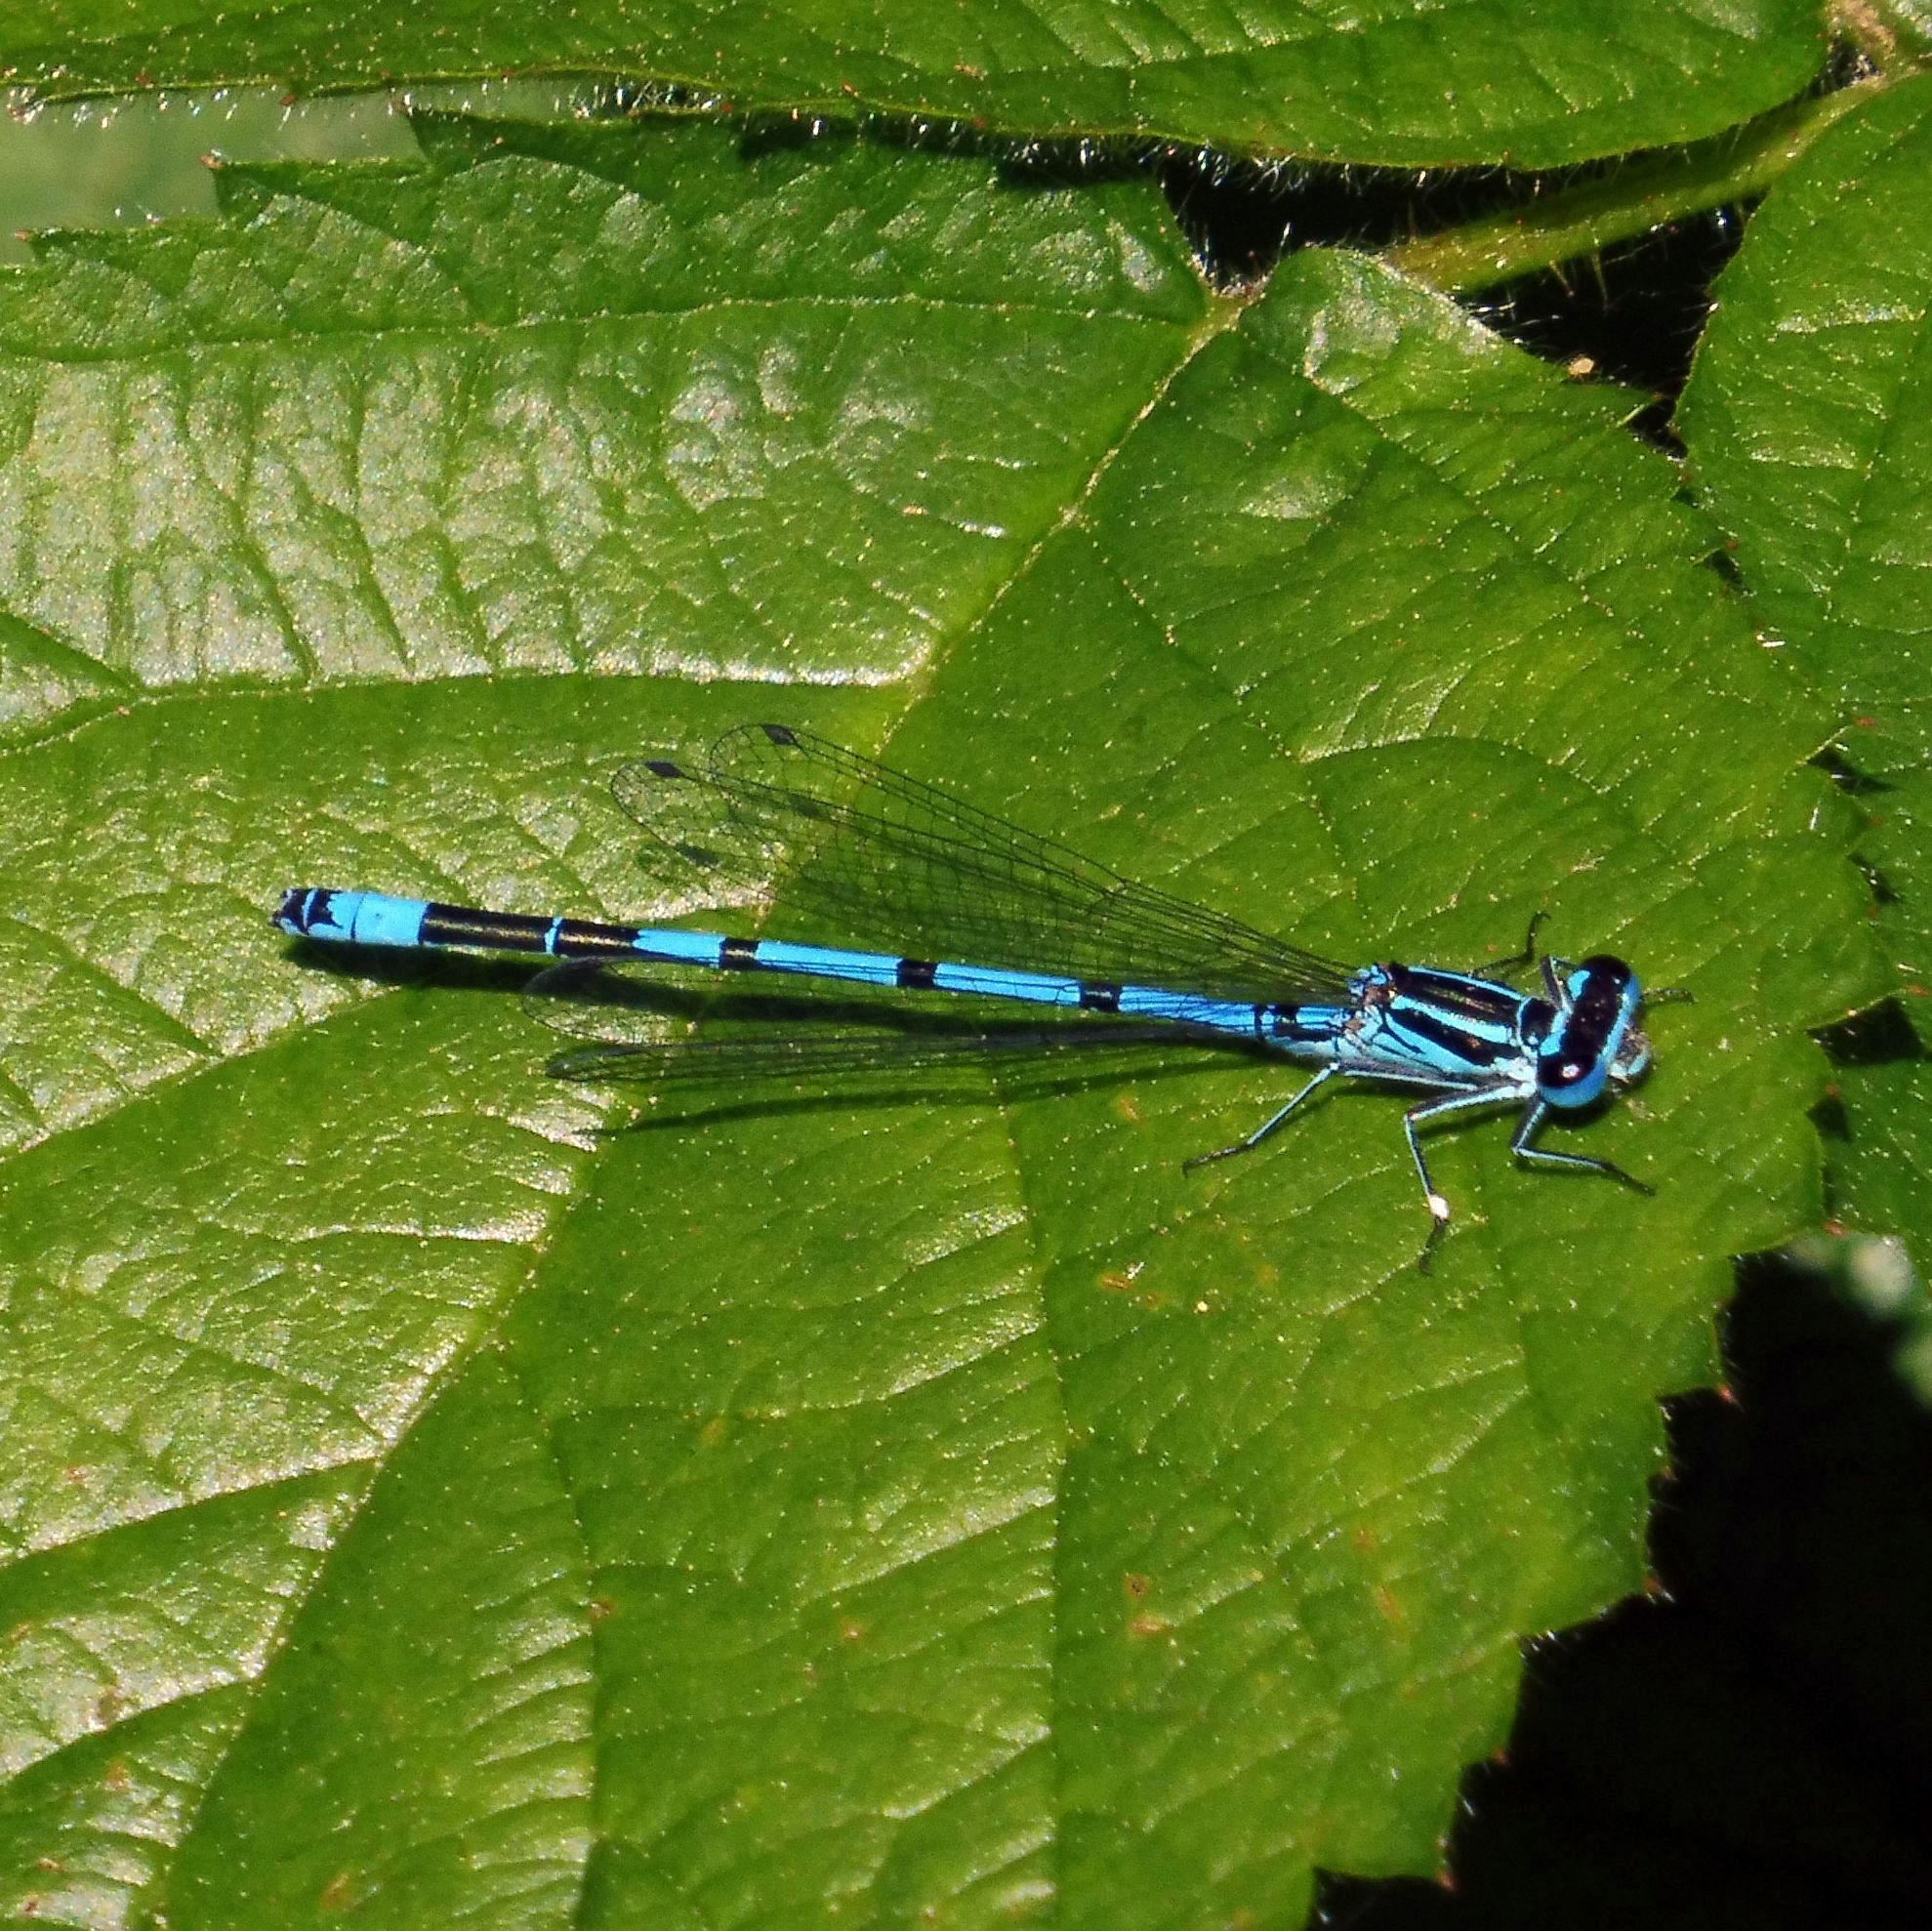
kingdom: Animalia
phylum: Arthropoda
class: Insecta
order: Odonata
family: Coenagrionidae
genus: Coenagrion
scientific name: Coenagrion puella
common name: Azure damselfly
